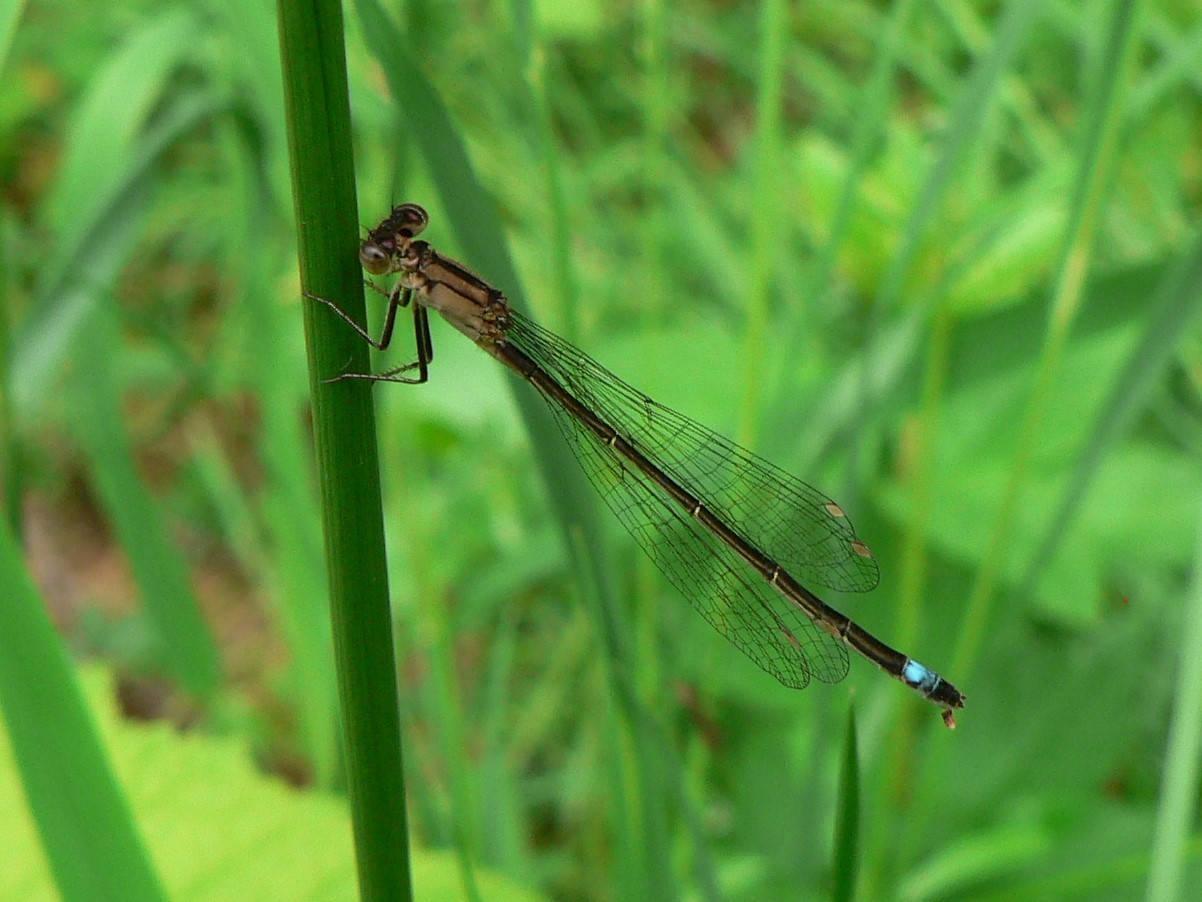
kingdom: Animalia
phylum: Arthropoda
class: Insecta
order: Odonata
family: Coenagrionidae
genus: Ischnura
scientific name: Ischnura cervula
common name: Pacific forktail
